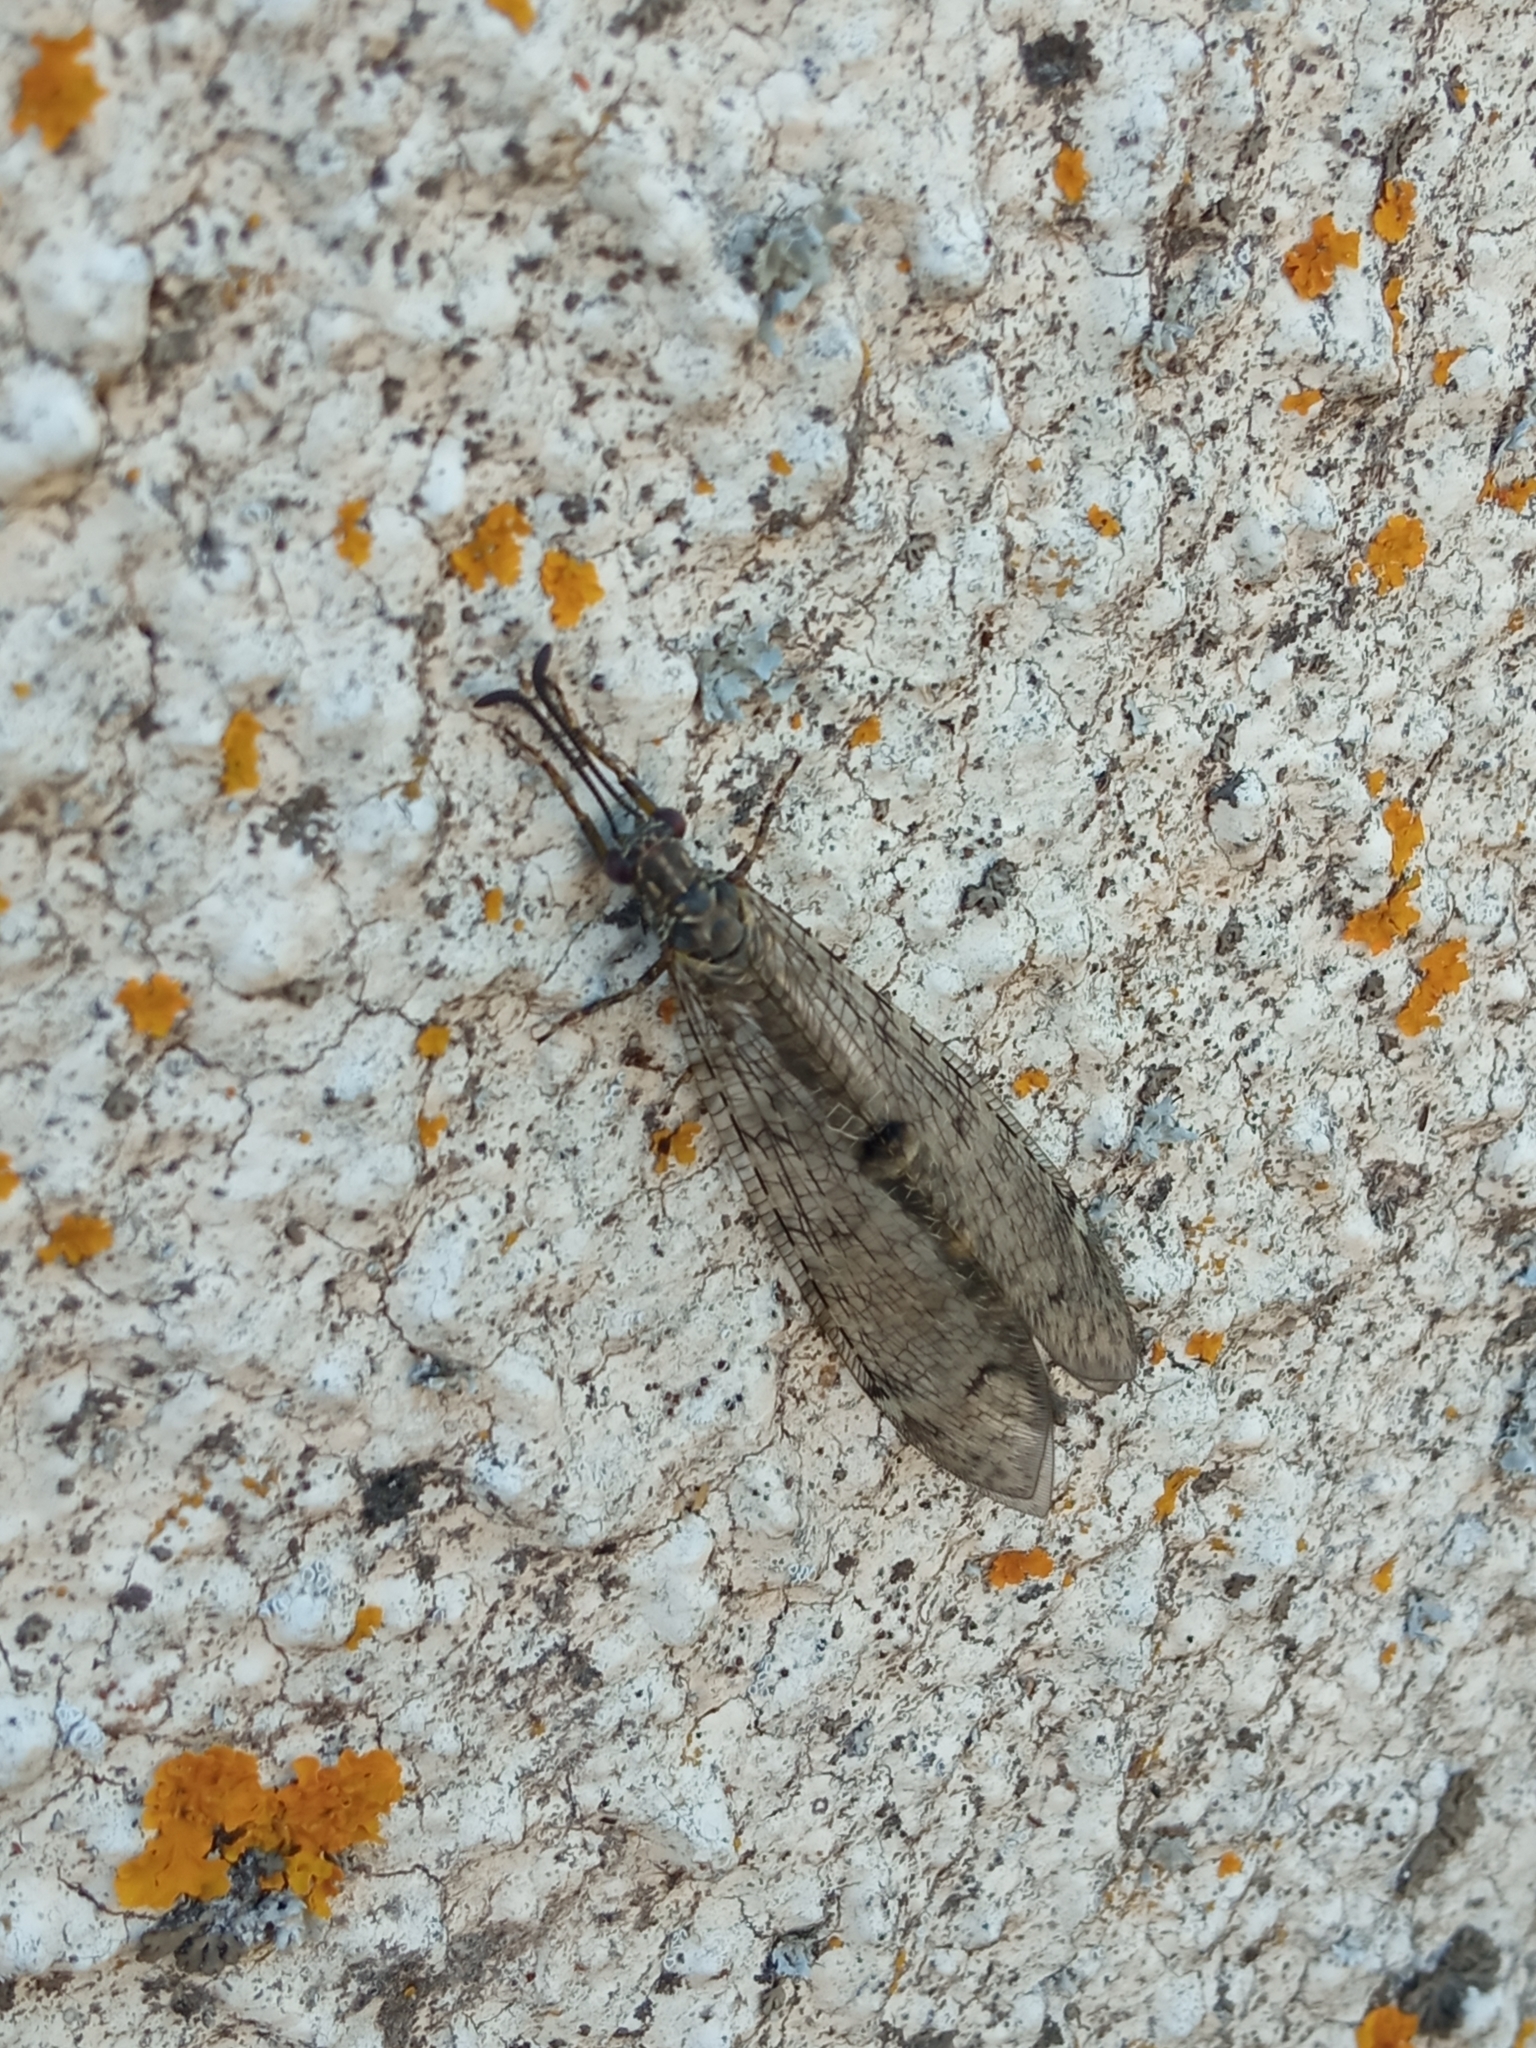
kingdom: Animalia
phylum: Arthropoda
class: Insecta
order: Neuroptera
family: Myrmeleontidae
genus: Distoleon
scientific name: Distoleon tetragrammicus
